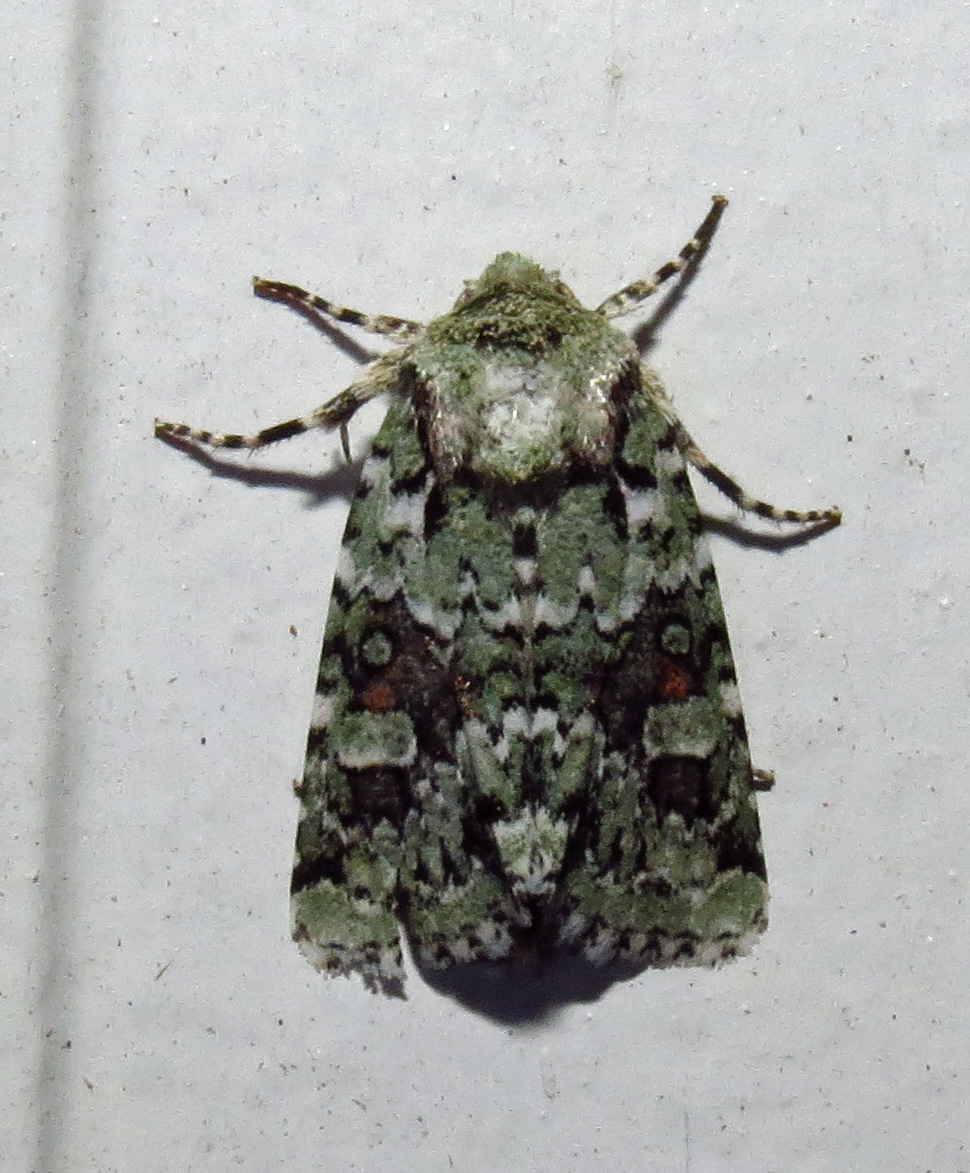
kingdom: Animalia
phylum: Arthropoda
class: Insecta
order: Lepidoptera
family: Noctuidae
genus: Lacinipolia
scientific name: Lacinipolia laudabilis
